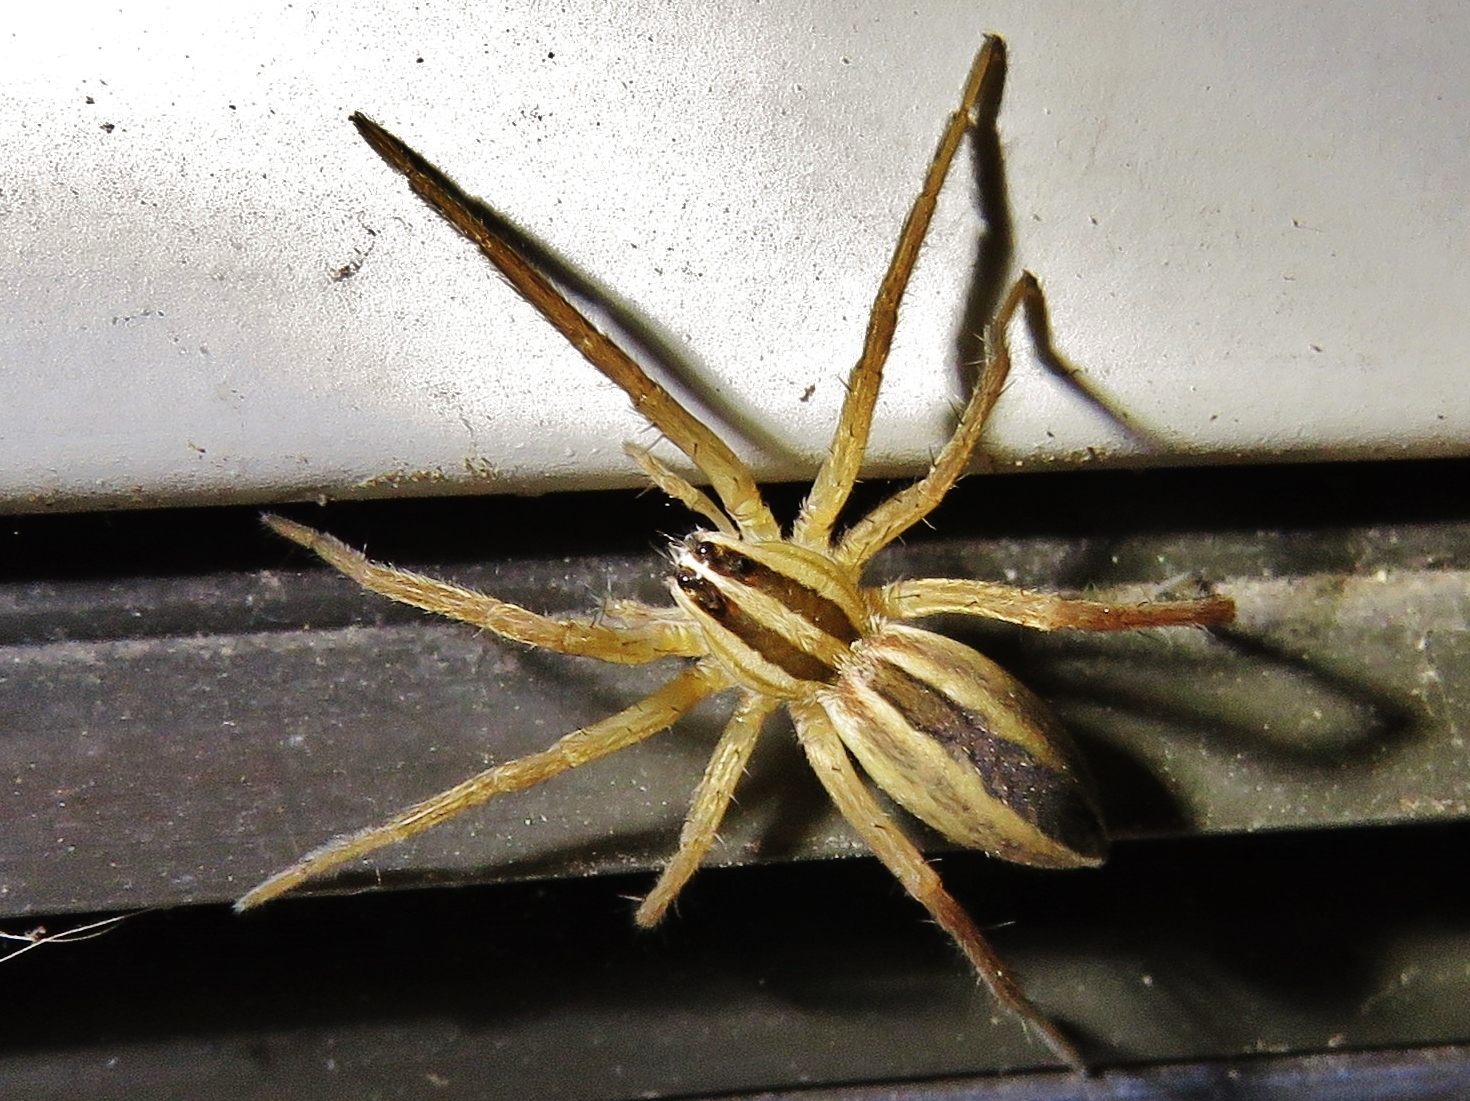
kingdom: Animalia
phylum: Arthropoda
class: Arachnida
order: Araneae
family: Lycosidae
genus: Rabidosa
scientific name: Rabidosa rabida
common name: Rabid wolf spider
